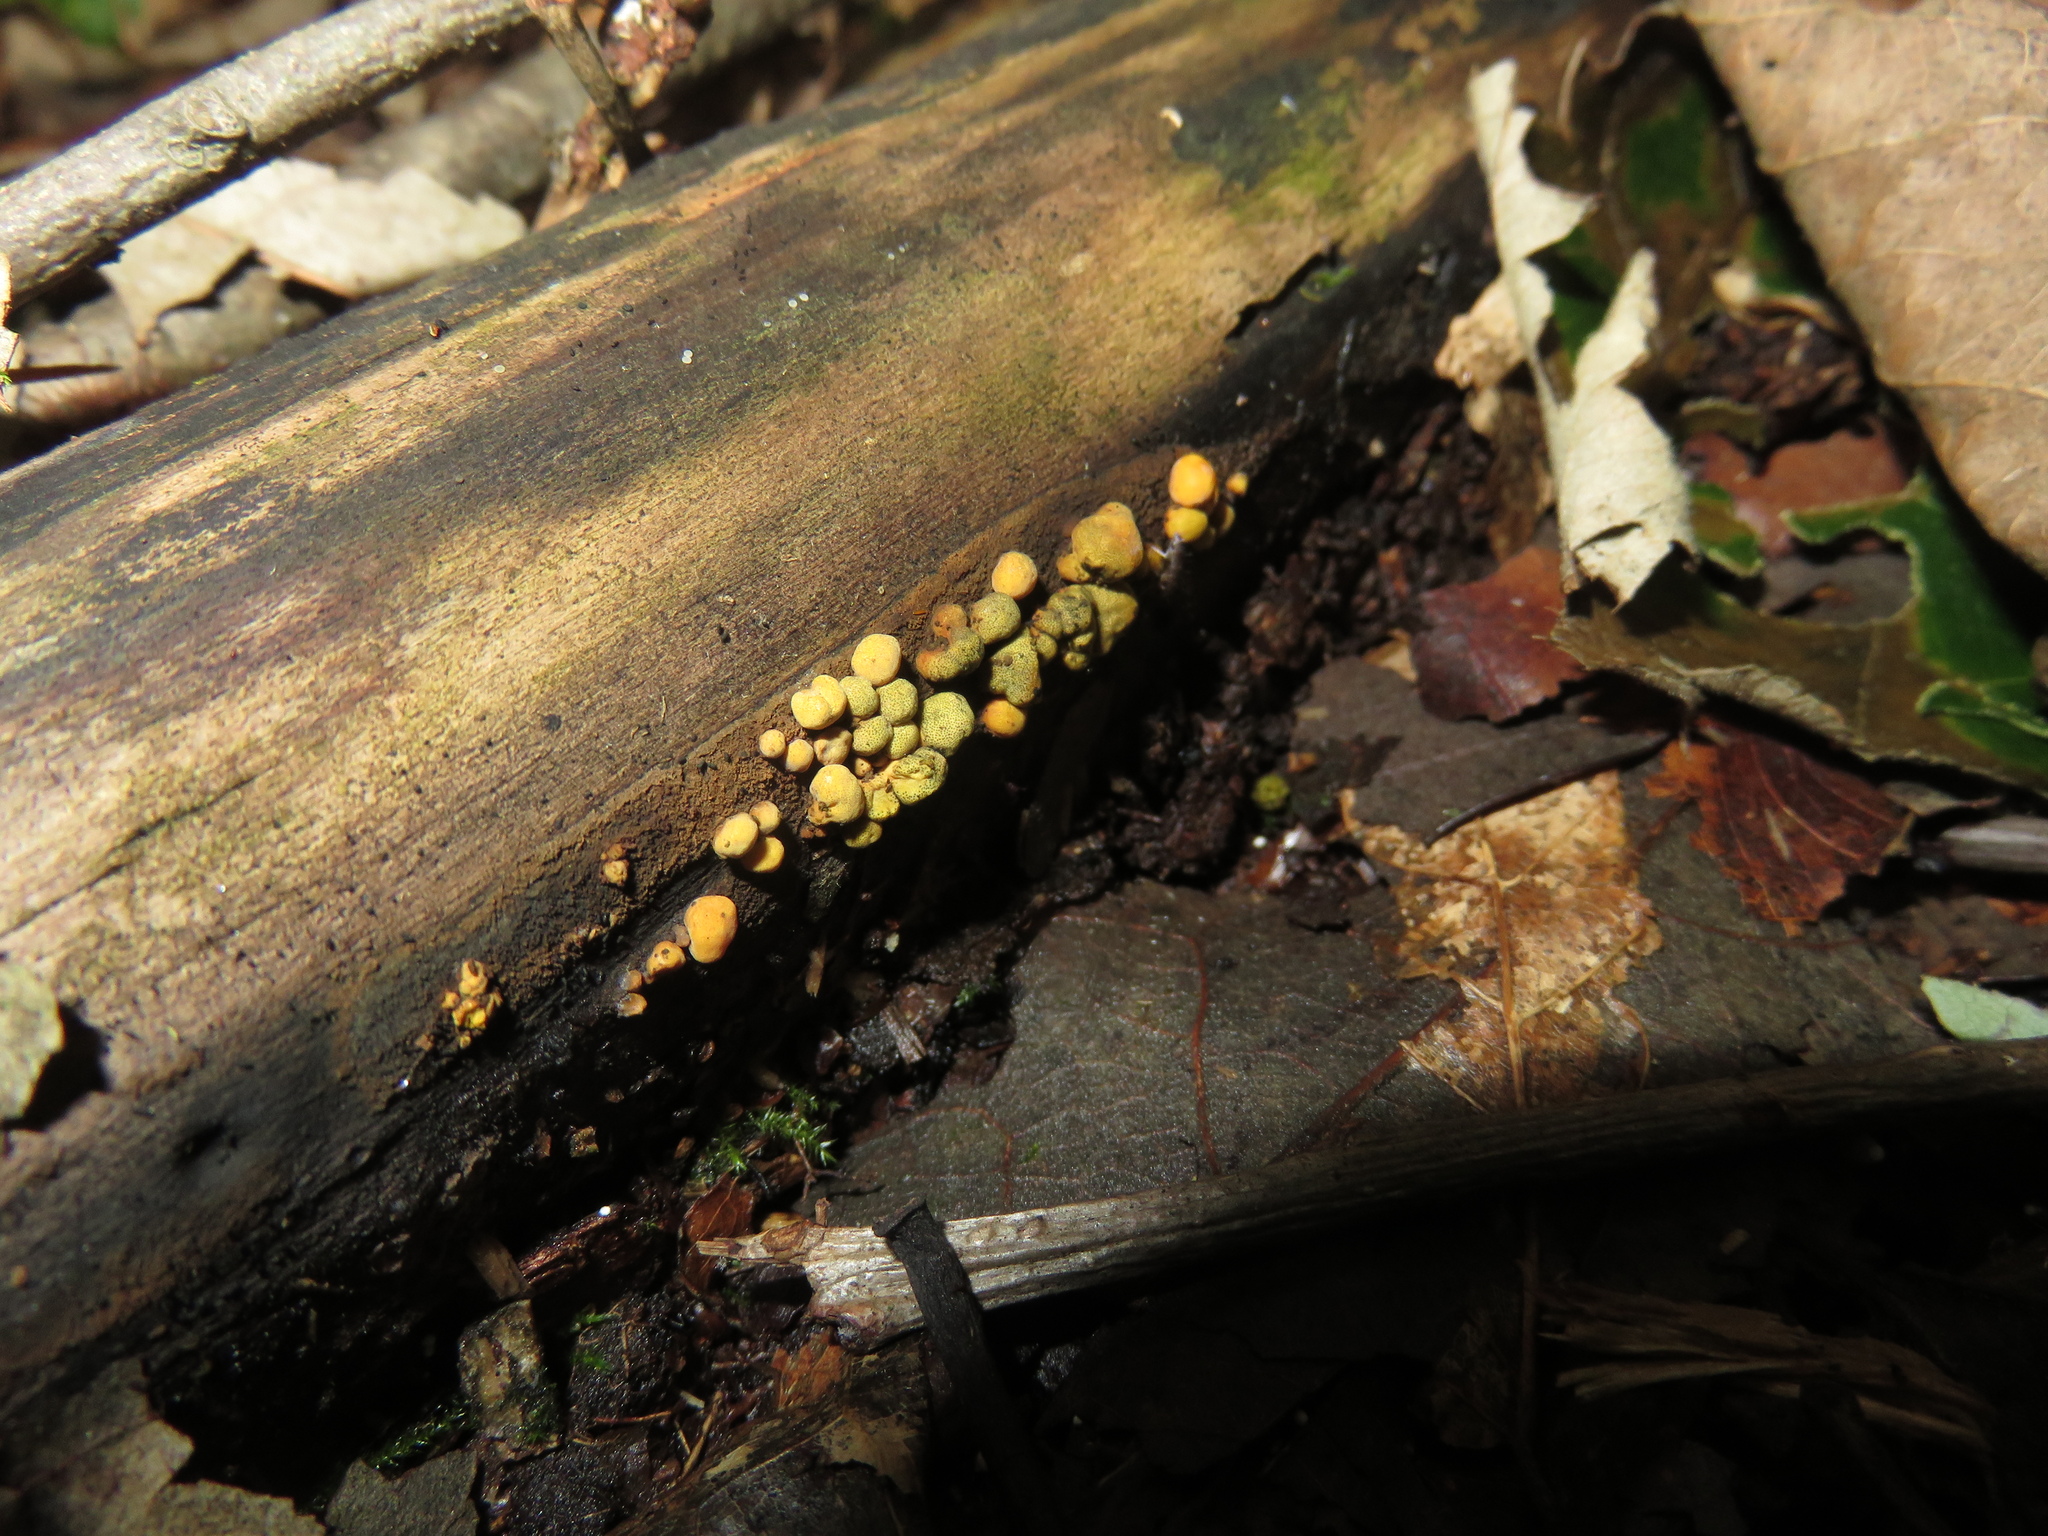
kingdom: Fungi
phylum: Ascomycota
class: Sordariomycetes
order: Xylariales
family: Hypoxylaceae
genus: Thuemenella
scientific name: Thuemenella cubispora
